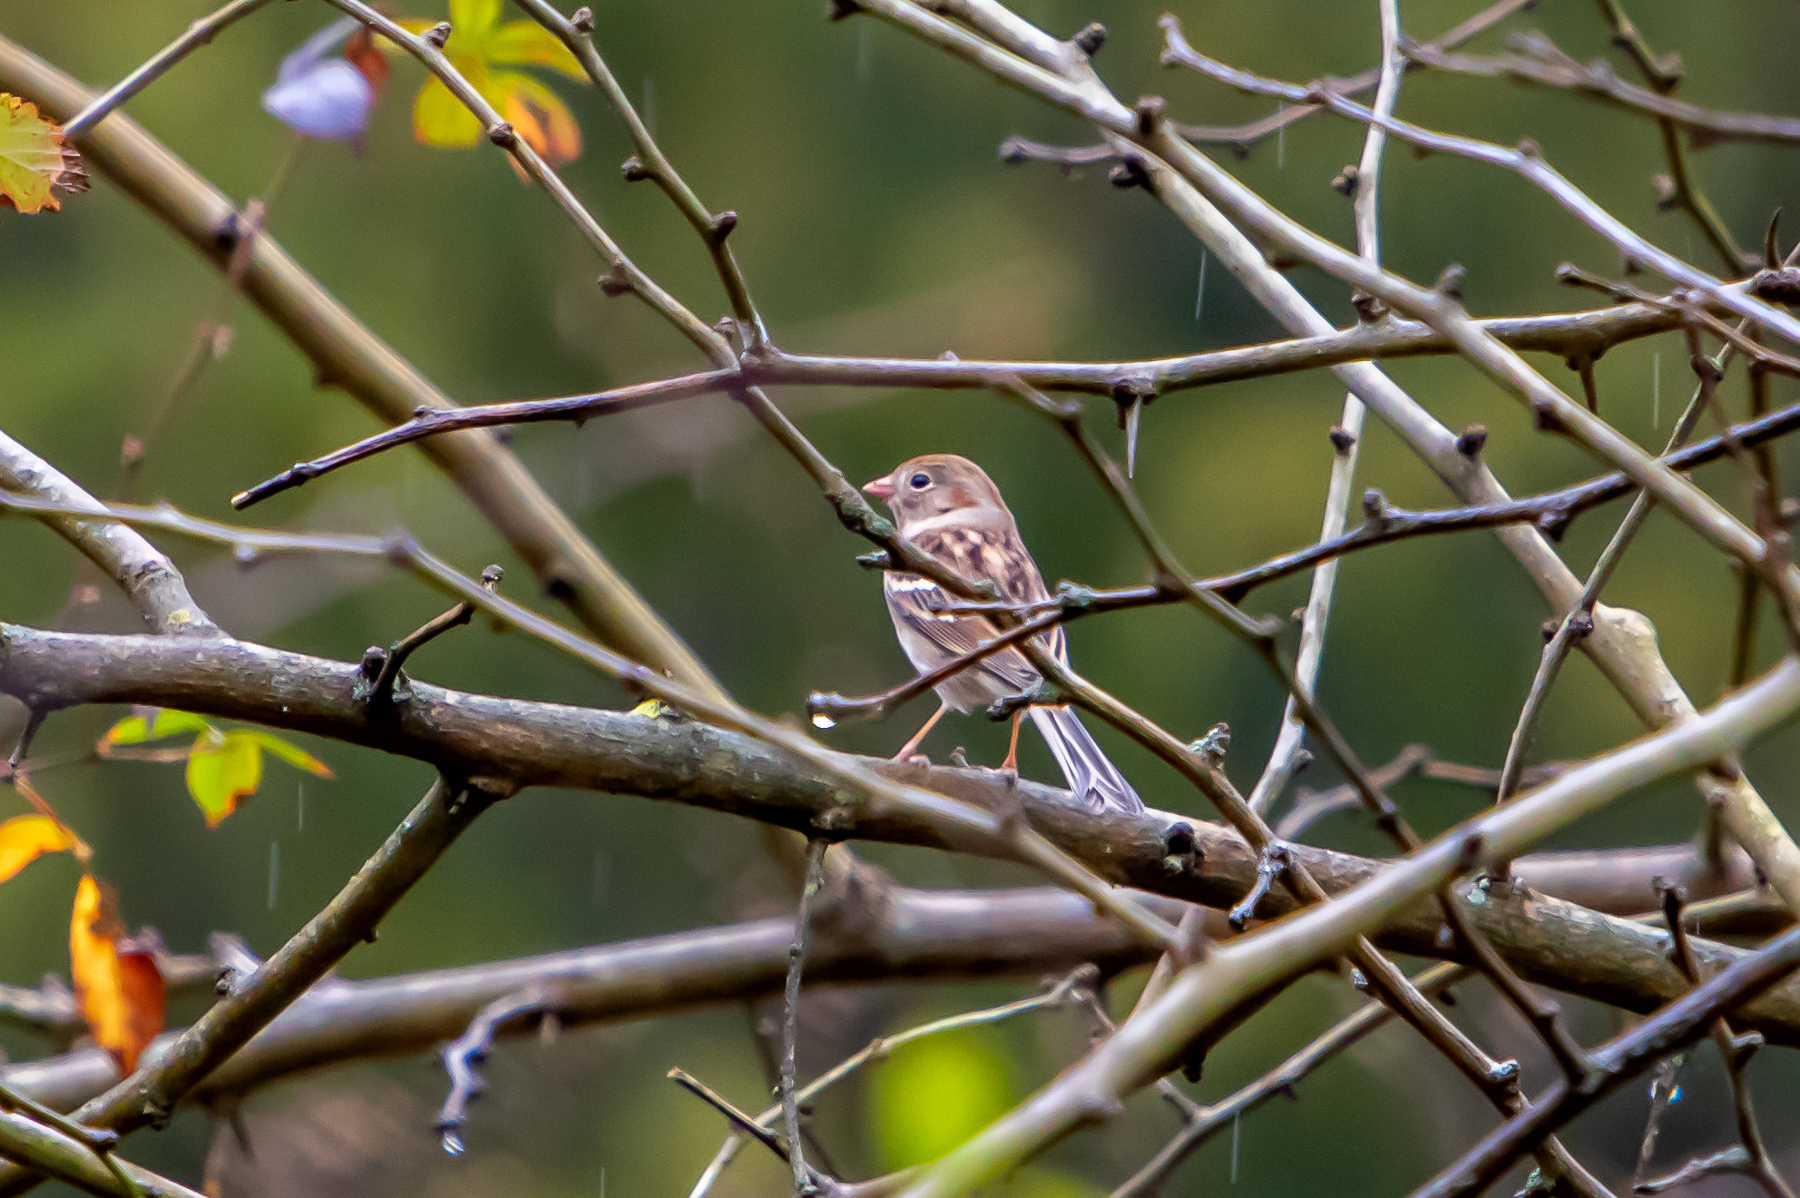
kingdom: Animalia
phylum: Chordata
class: Aves
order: Passeriformes
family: Passerellidae
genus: Spizella
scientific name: Spizella pusilla
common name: Field sparrow
